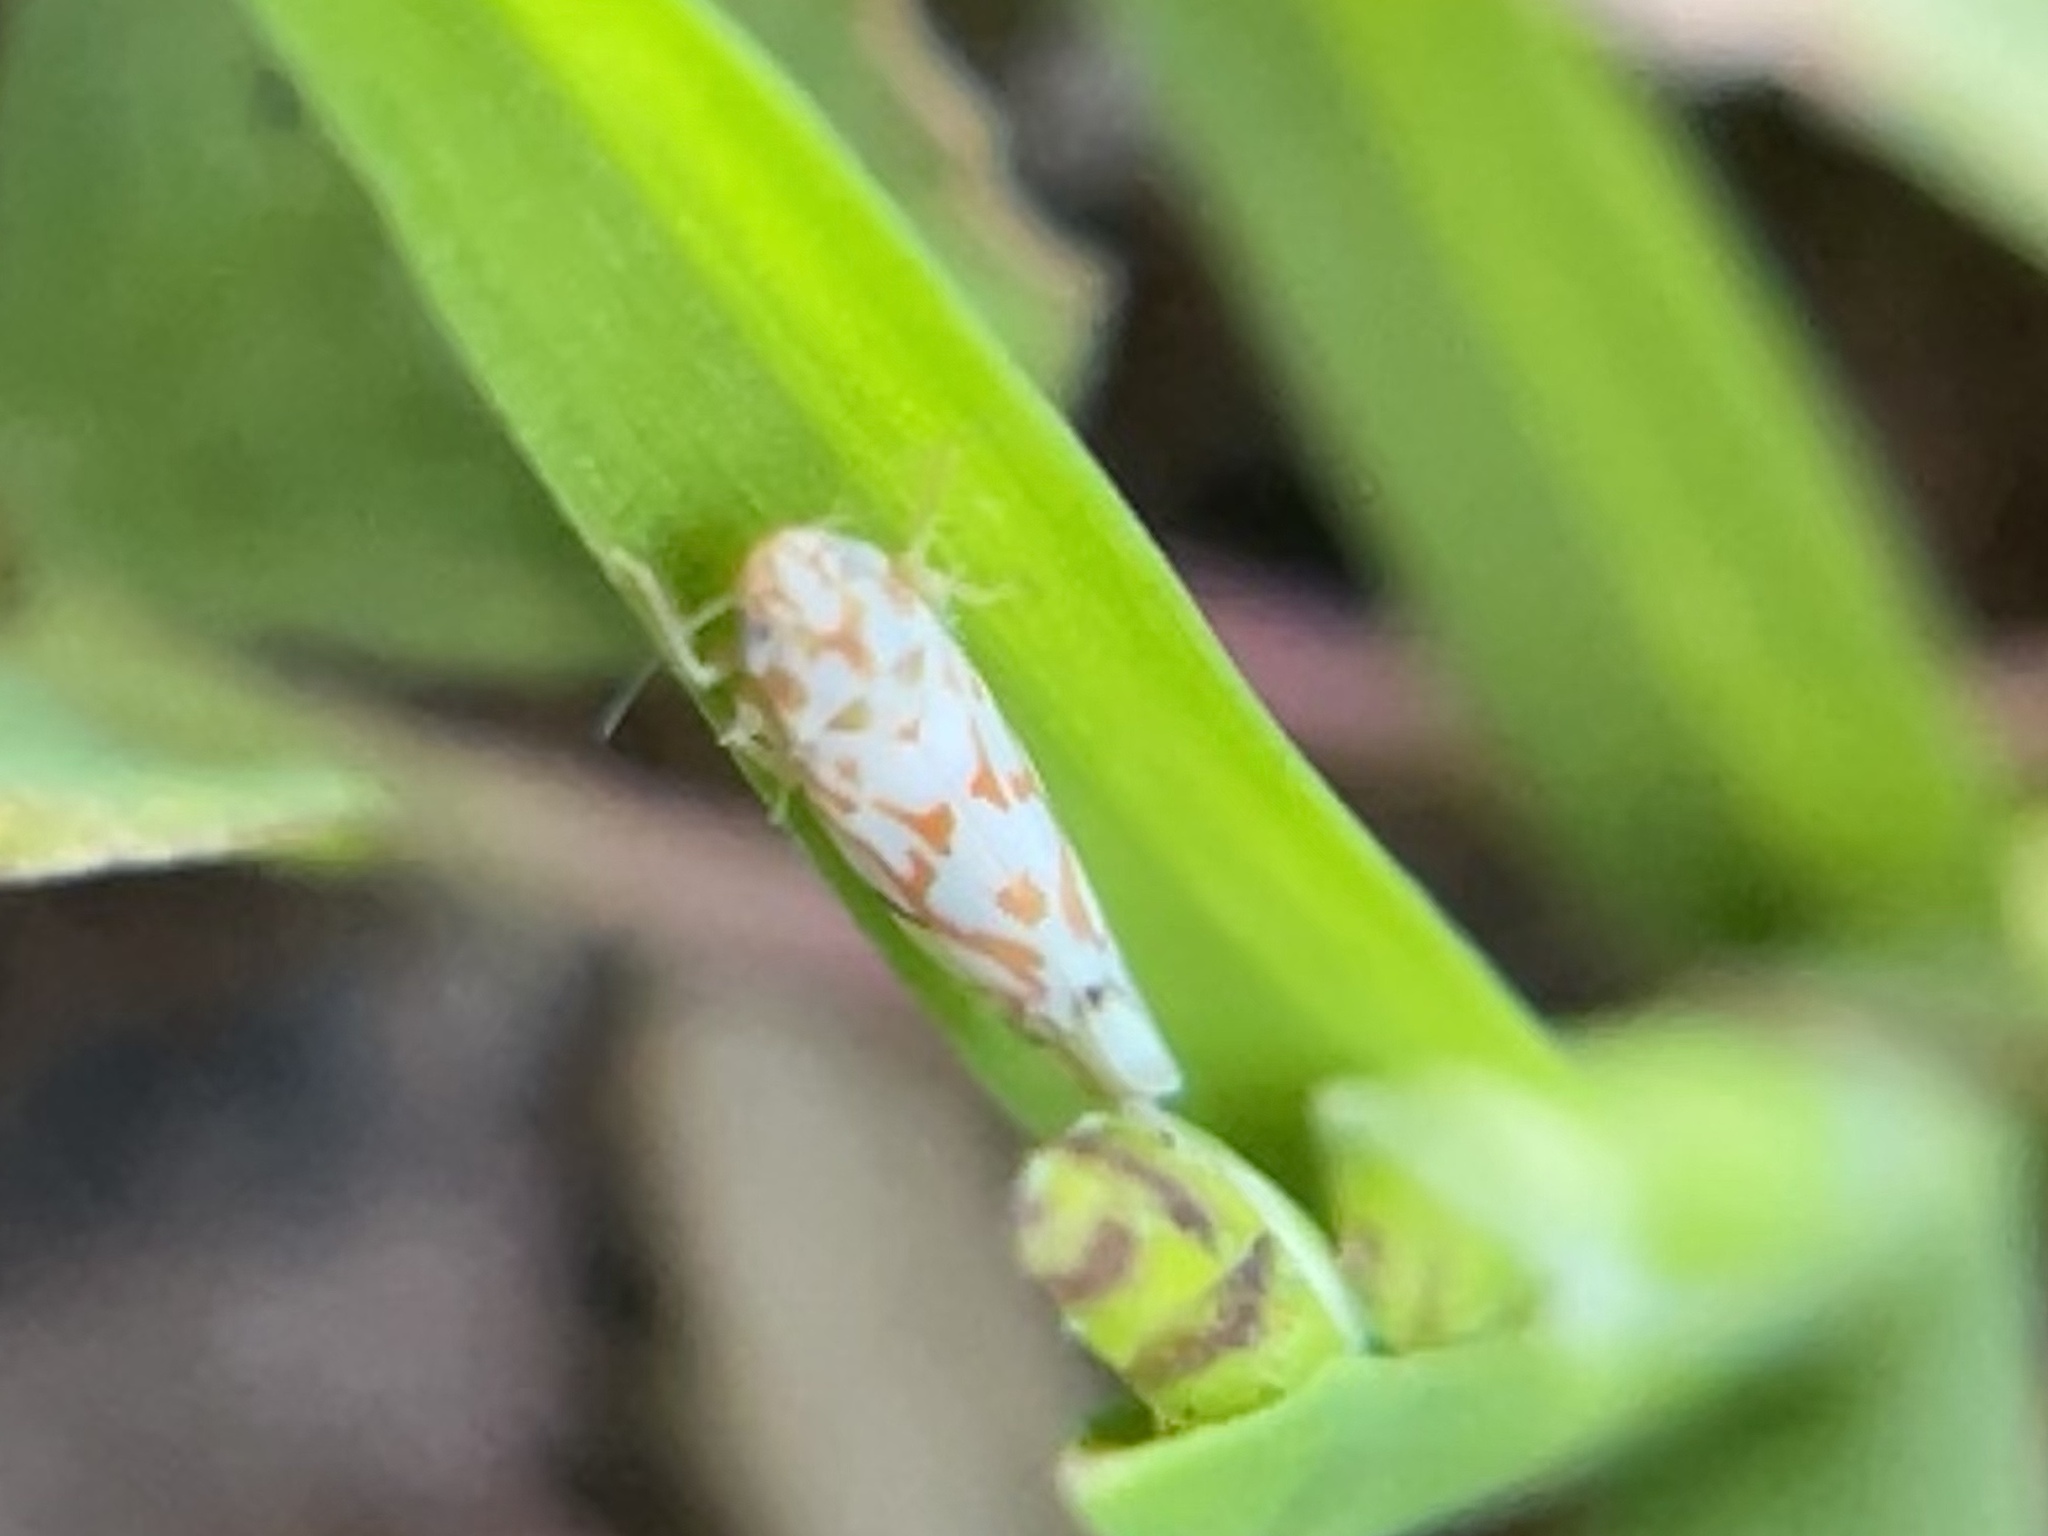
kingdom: Animalia
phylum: Arthropoda
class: Insecta
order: Hemiptera
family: Cicadellidae
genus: Erythroneura
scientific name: Erythroneura delicata
